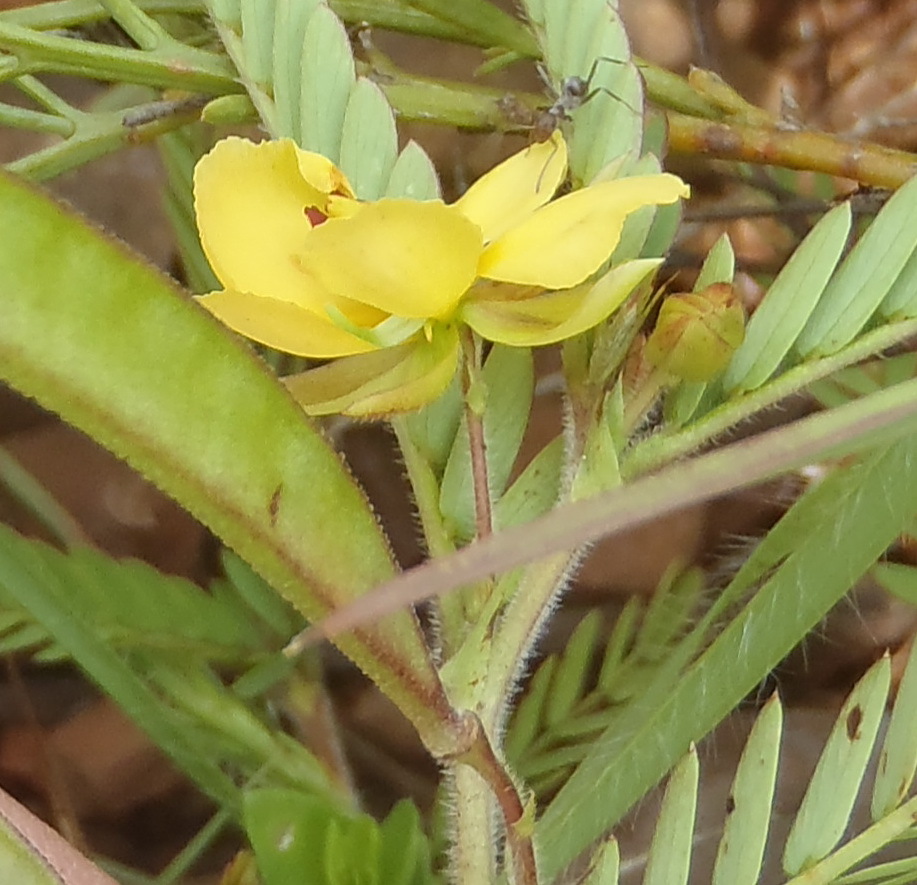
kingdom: Plantae
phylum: Tracheophyta
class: Magnoliopsida
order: Fabales
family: Fabaceae
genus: Chamaecrista
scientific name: Chamaecrista mimosoides
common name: Fish-bone cassia
